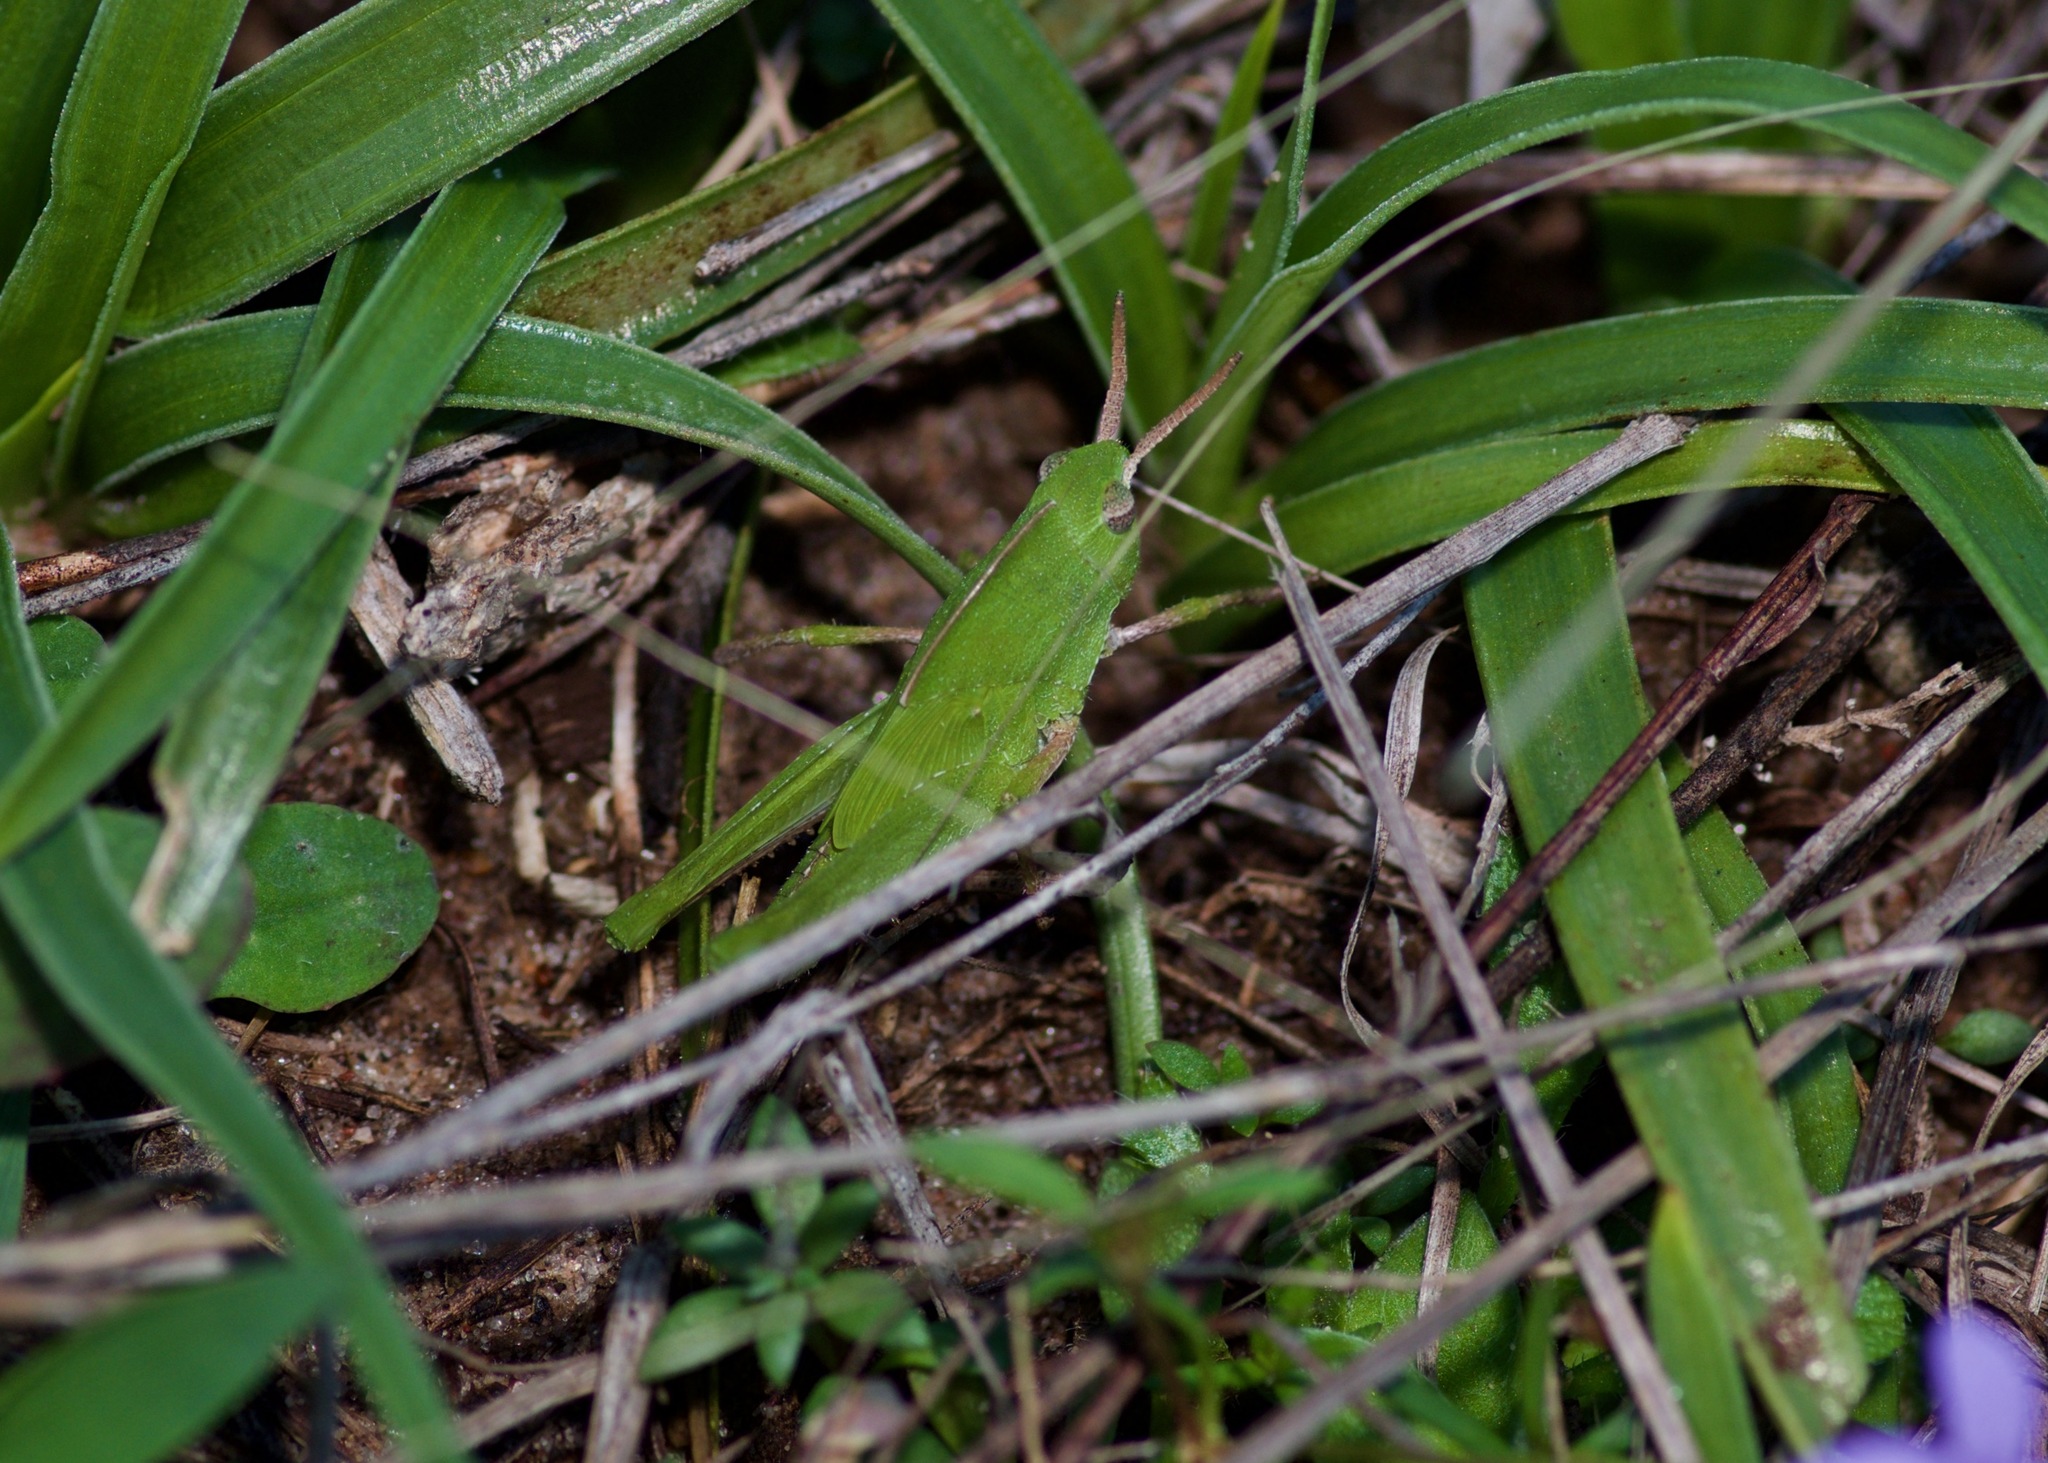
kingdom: Animalia
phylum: Arthropoda
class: Insecta
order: Orthoptera
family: Acrididae
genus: Chortophaga
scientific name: Chortophaga viridifasciata
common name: Green-striped grasshopper
